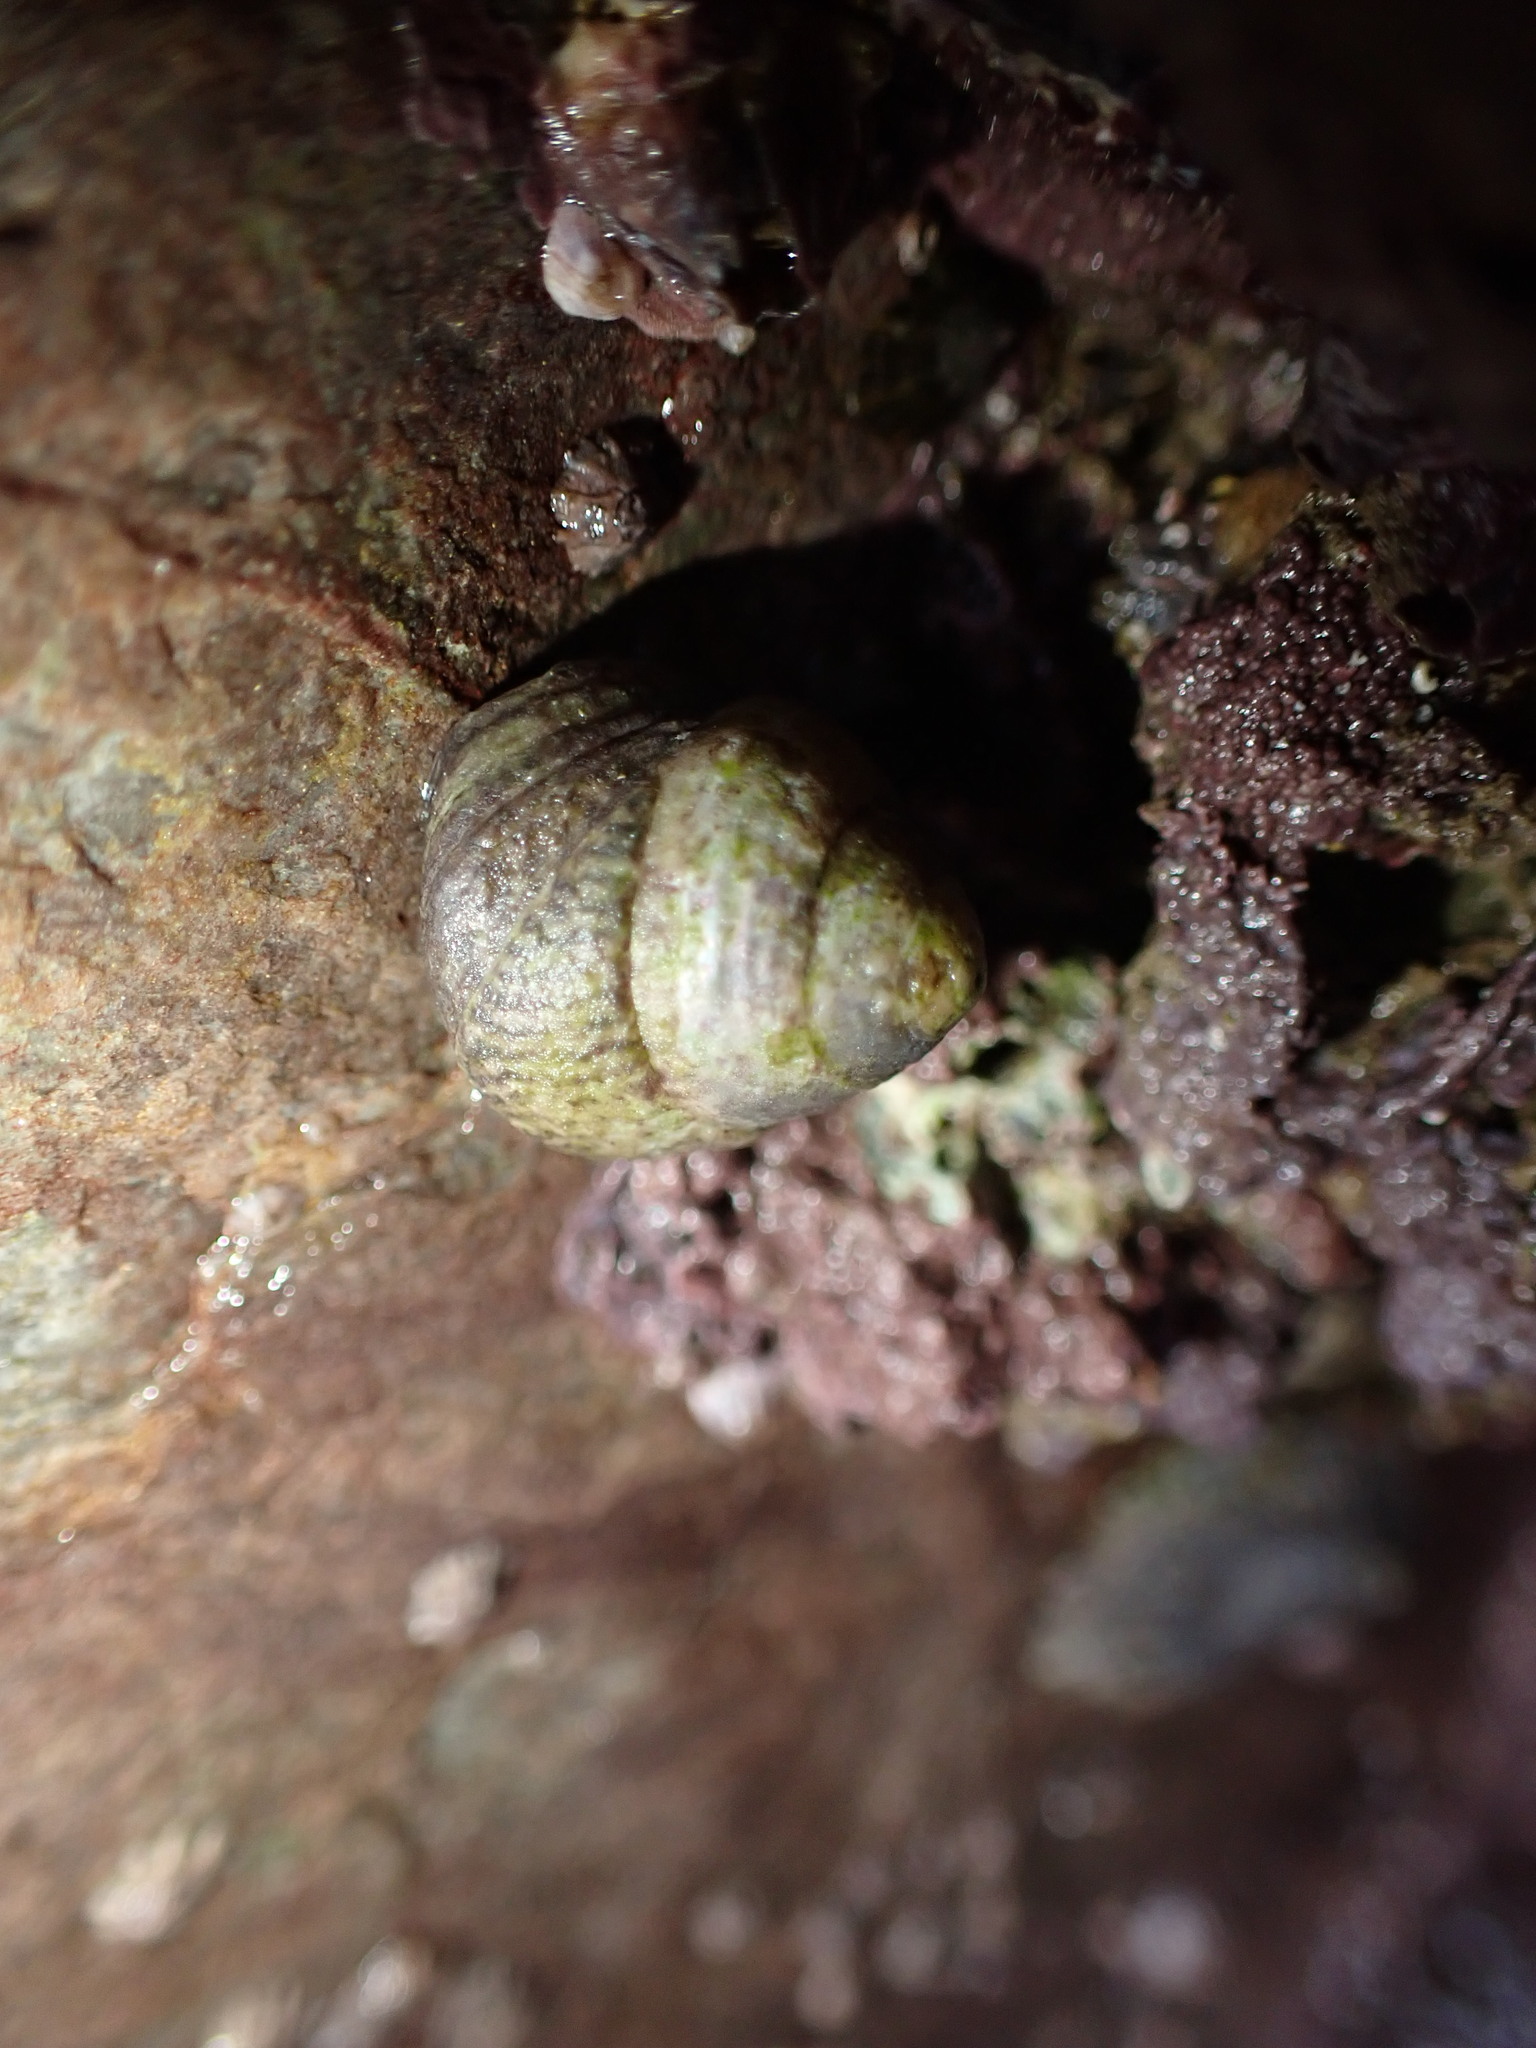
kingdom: Animalia
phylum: Mollusca
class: Gastropoda
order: Trochida
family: Trochidae
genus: Steromphala
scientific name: Steromphala cineraria
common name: Grey top shell
